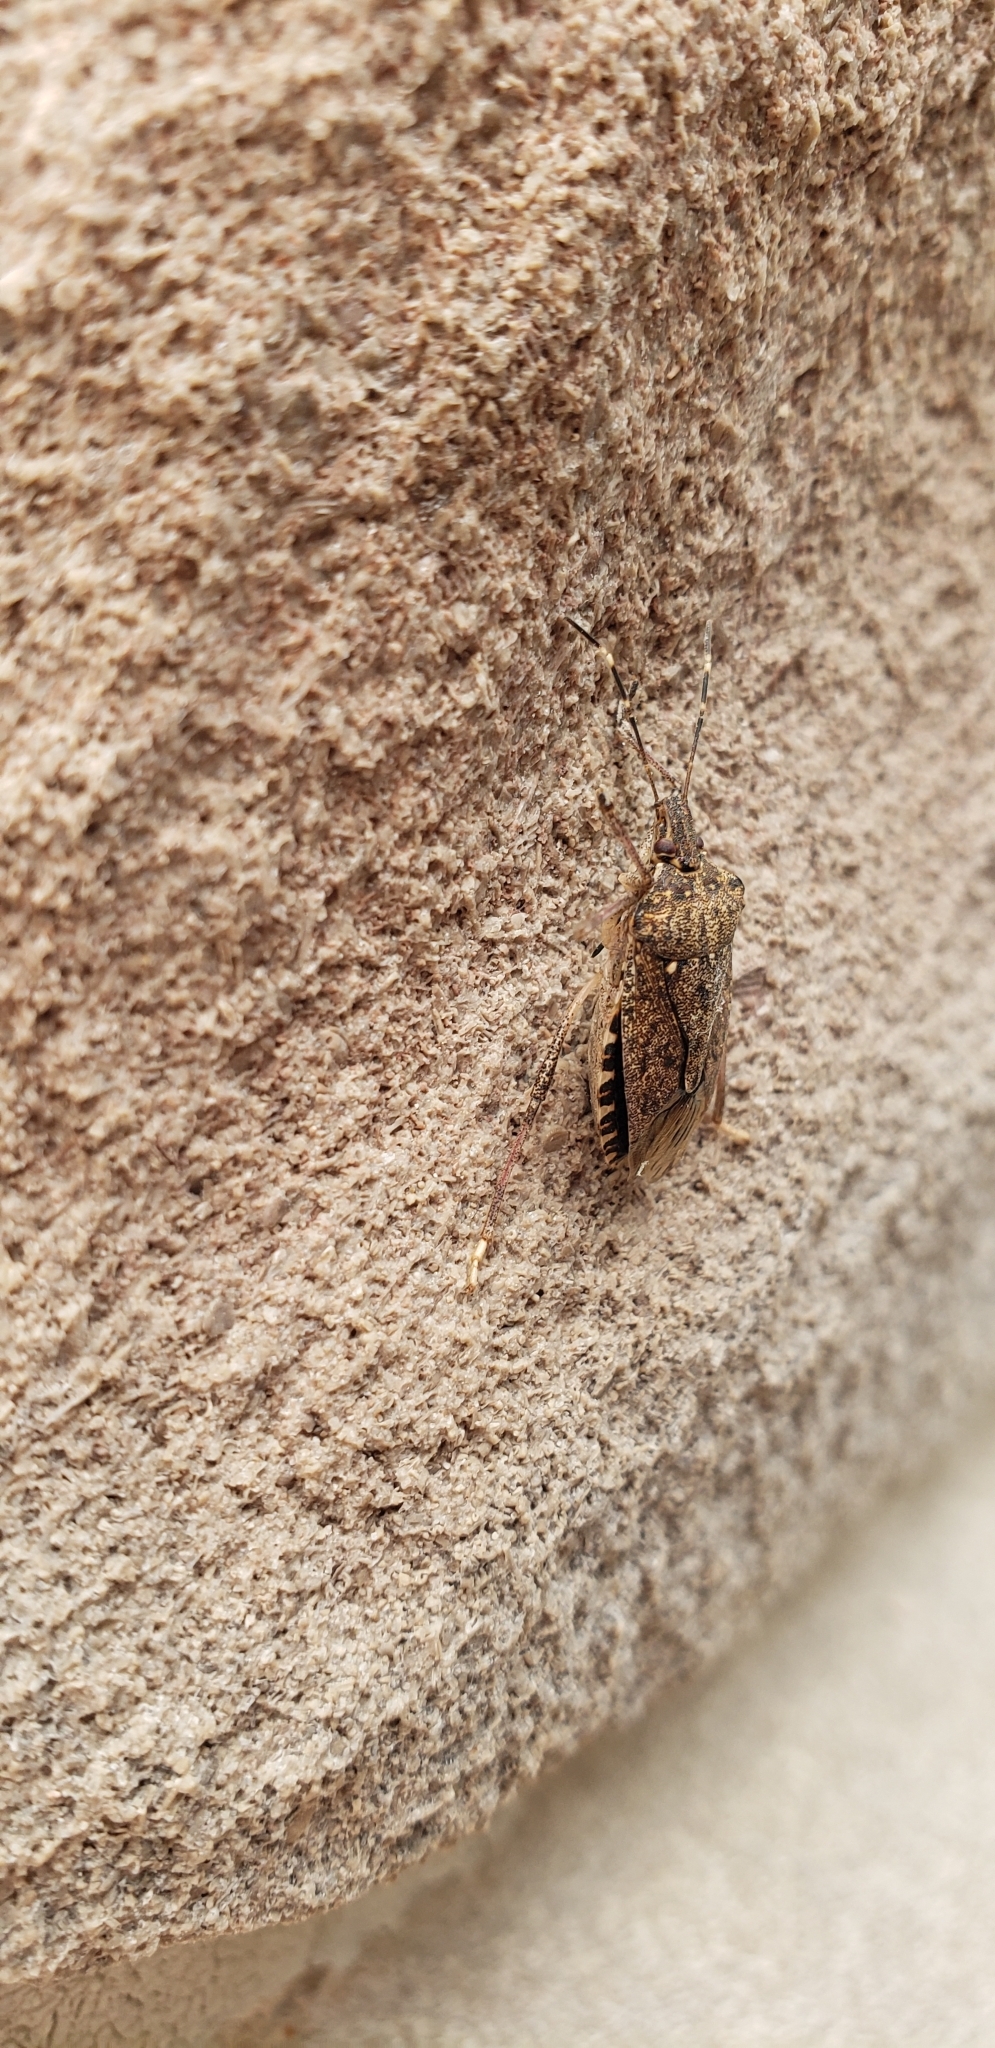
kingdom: Animalia
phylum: Arthropoda
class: Insecta
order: Hemiptera
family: Pentatomidae
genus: Halyomorpha
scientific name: Halyomorpha halys
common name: Brown marmorated stink bug
